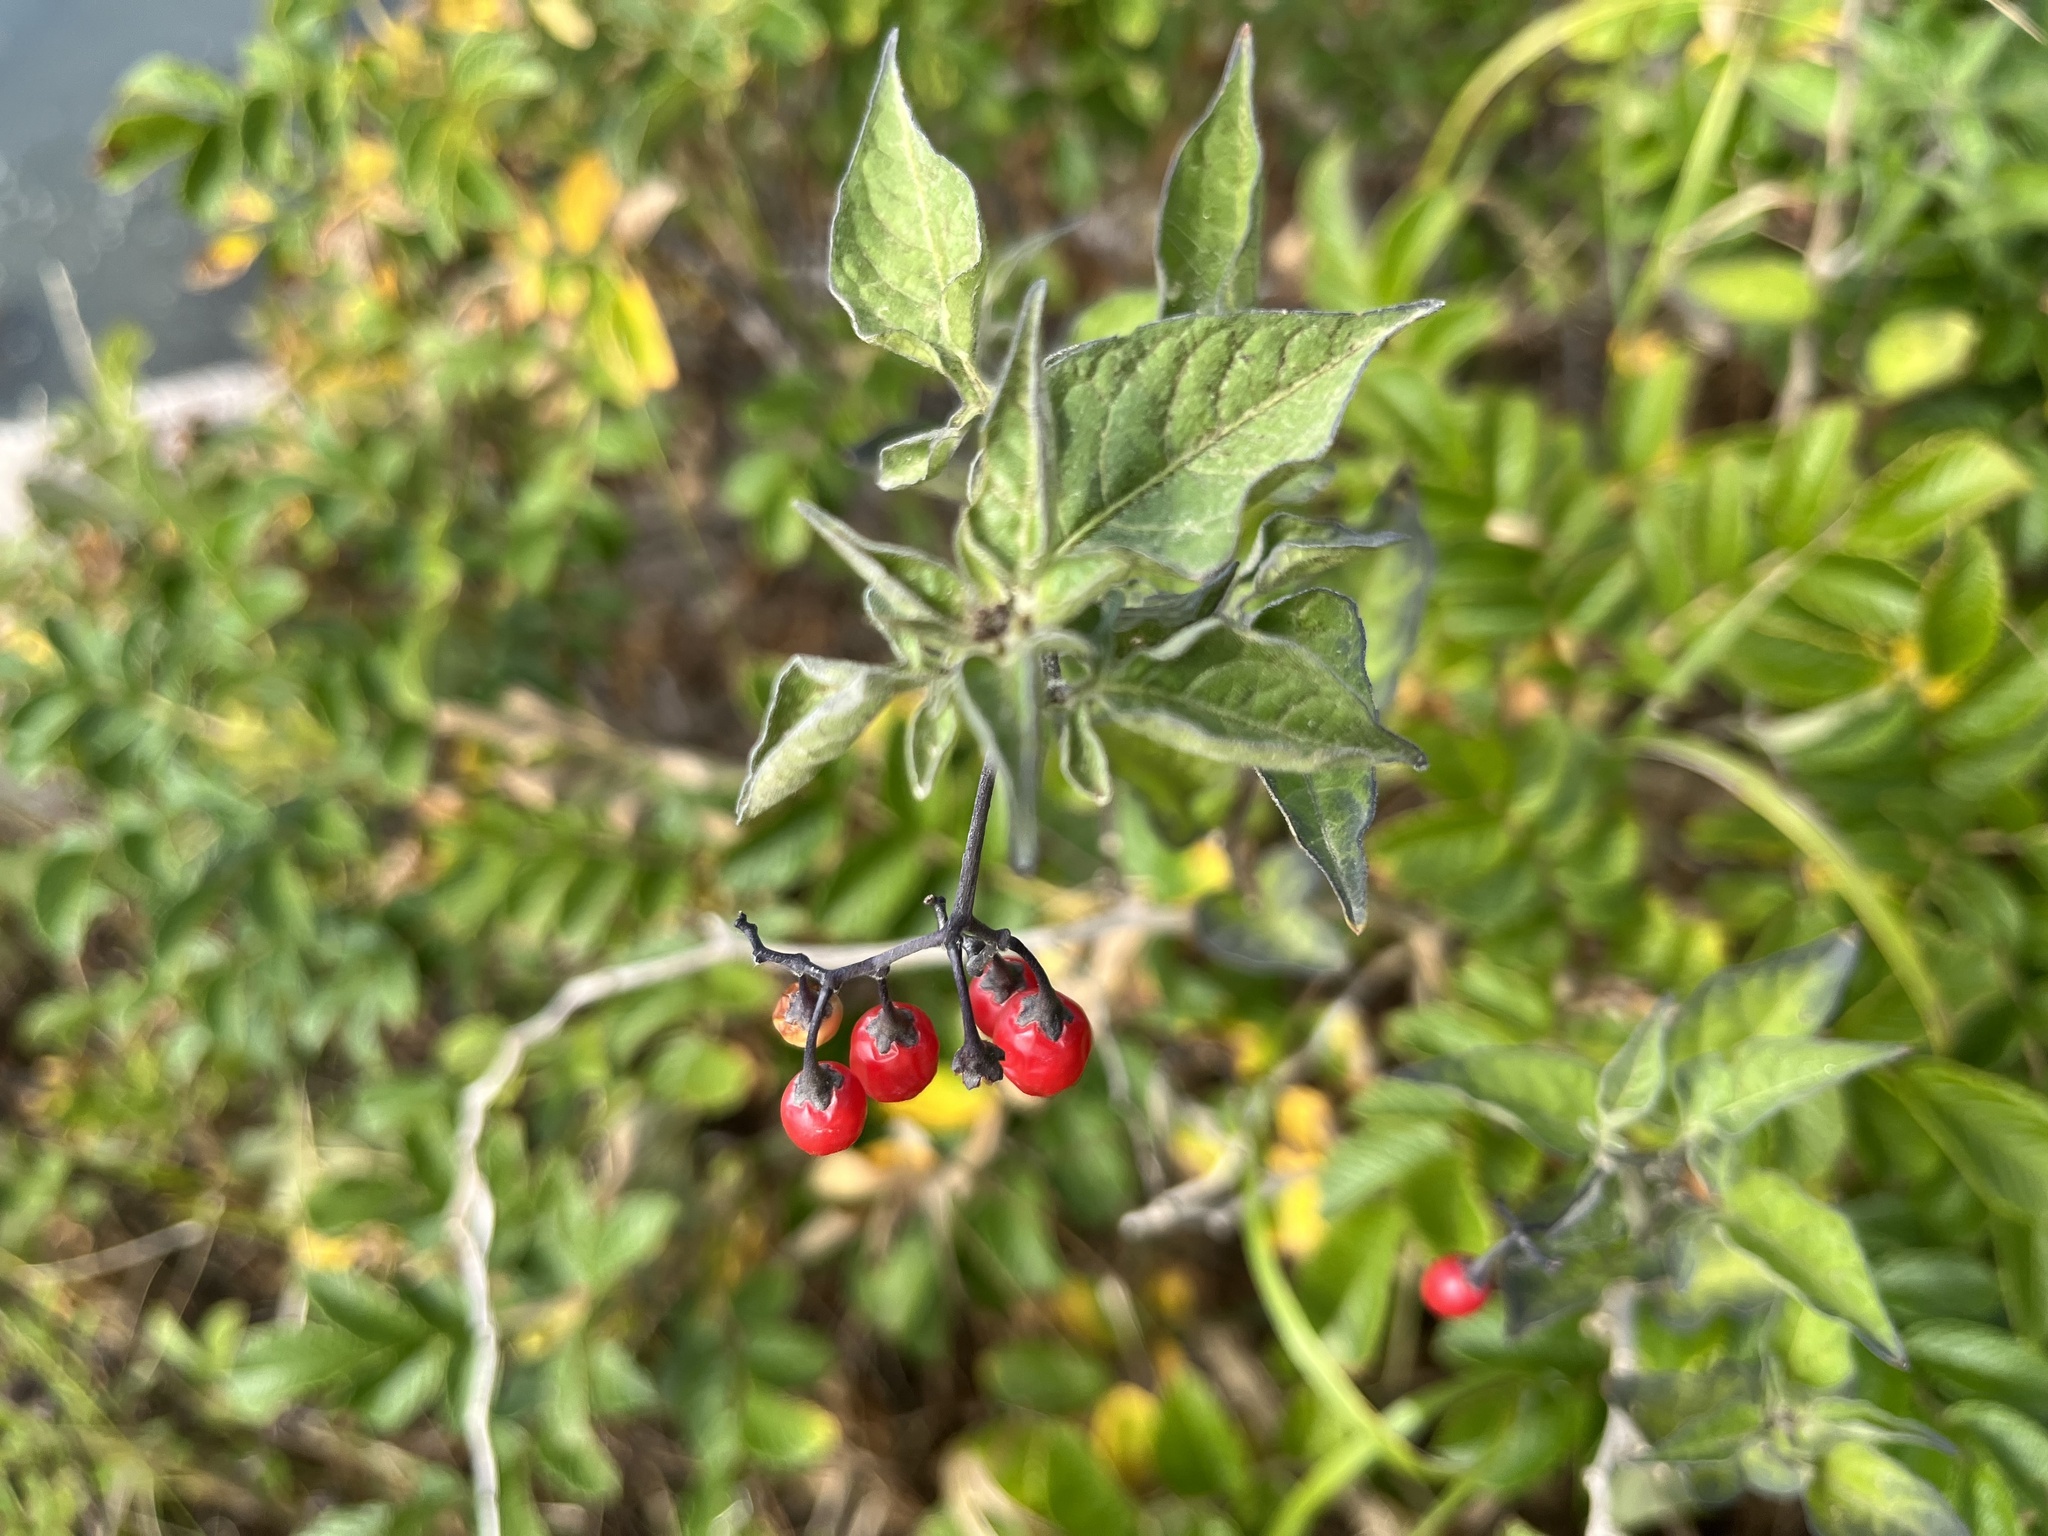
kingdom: Plantae
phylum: Tracheophyta
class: Magnoliopsida
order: Solanales
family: Solanaceae
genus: Solanum
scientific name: Solanum dulcamara
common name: Climbing nightshade
